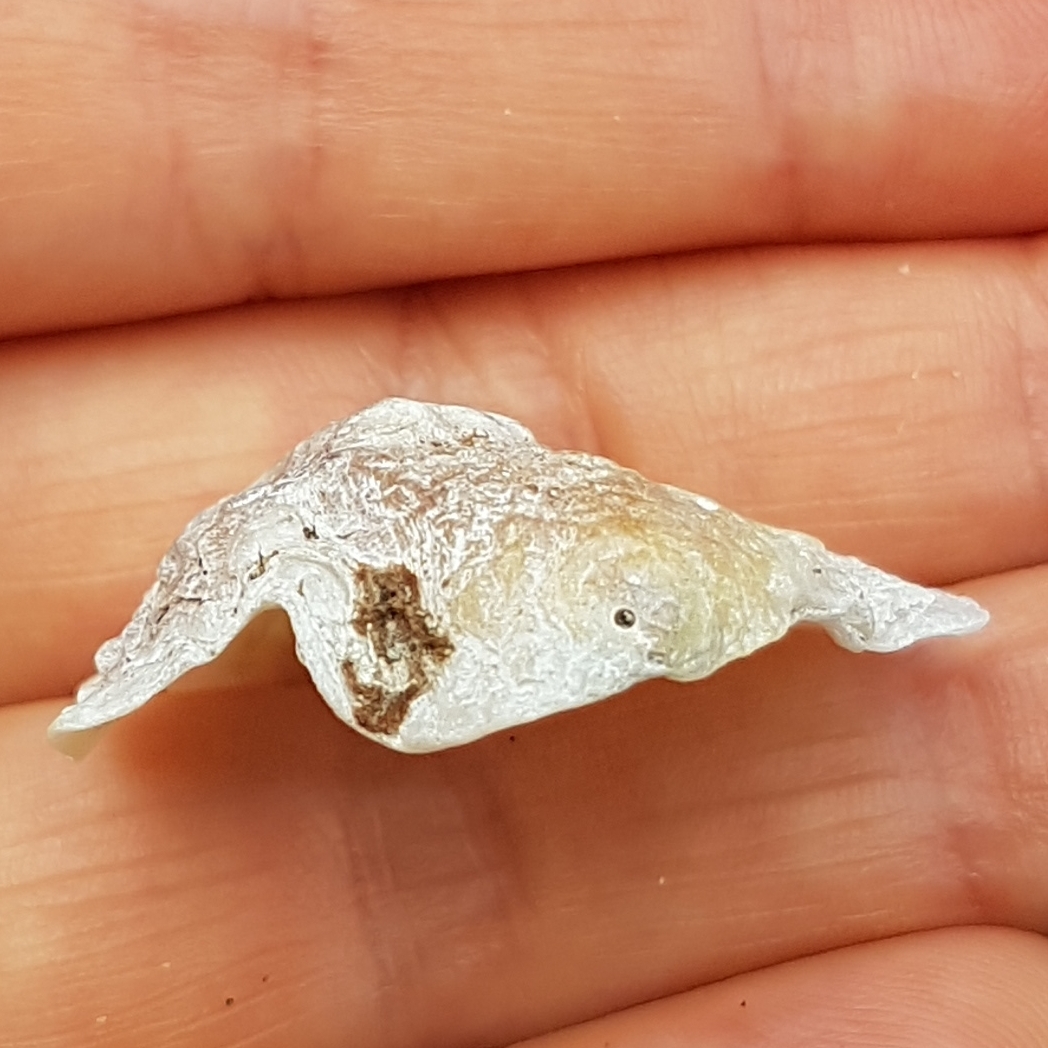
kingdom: Animalia
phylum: Mollusca
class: Bivalvia
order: Pectinida
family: Anomiidae
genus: Anomia
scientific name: Anomia ephippium
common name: Saddle oyster
